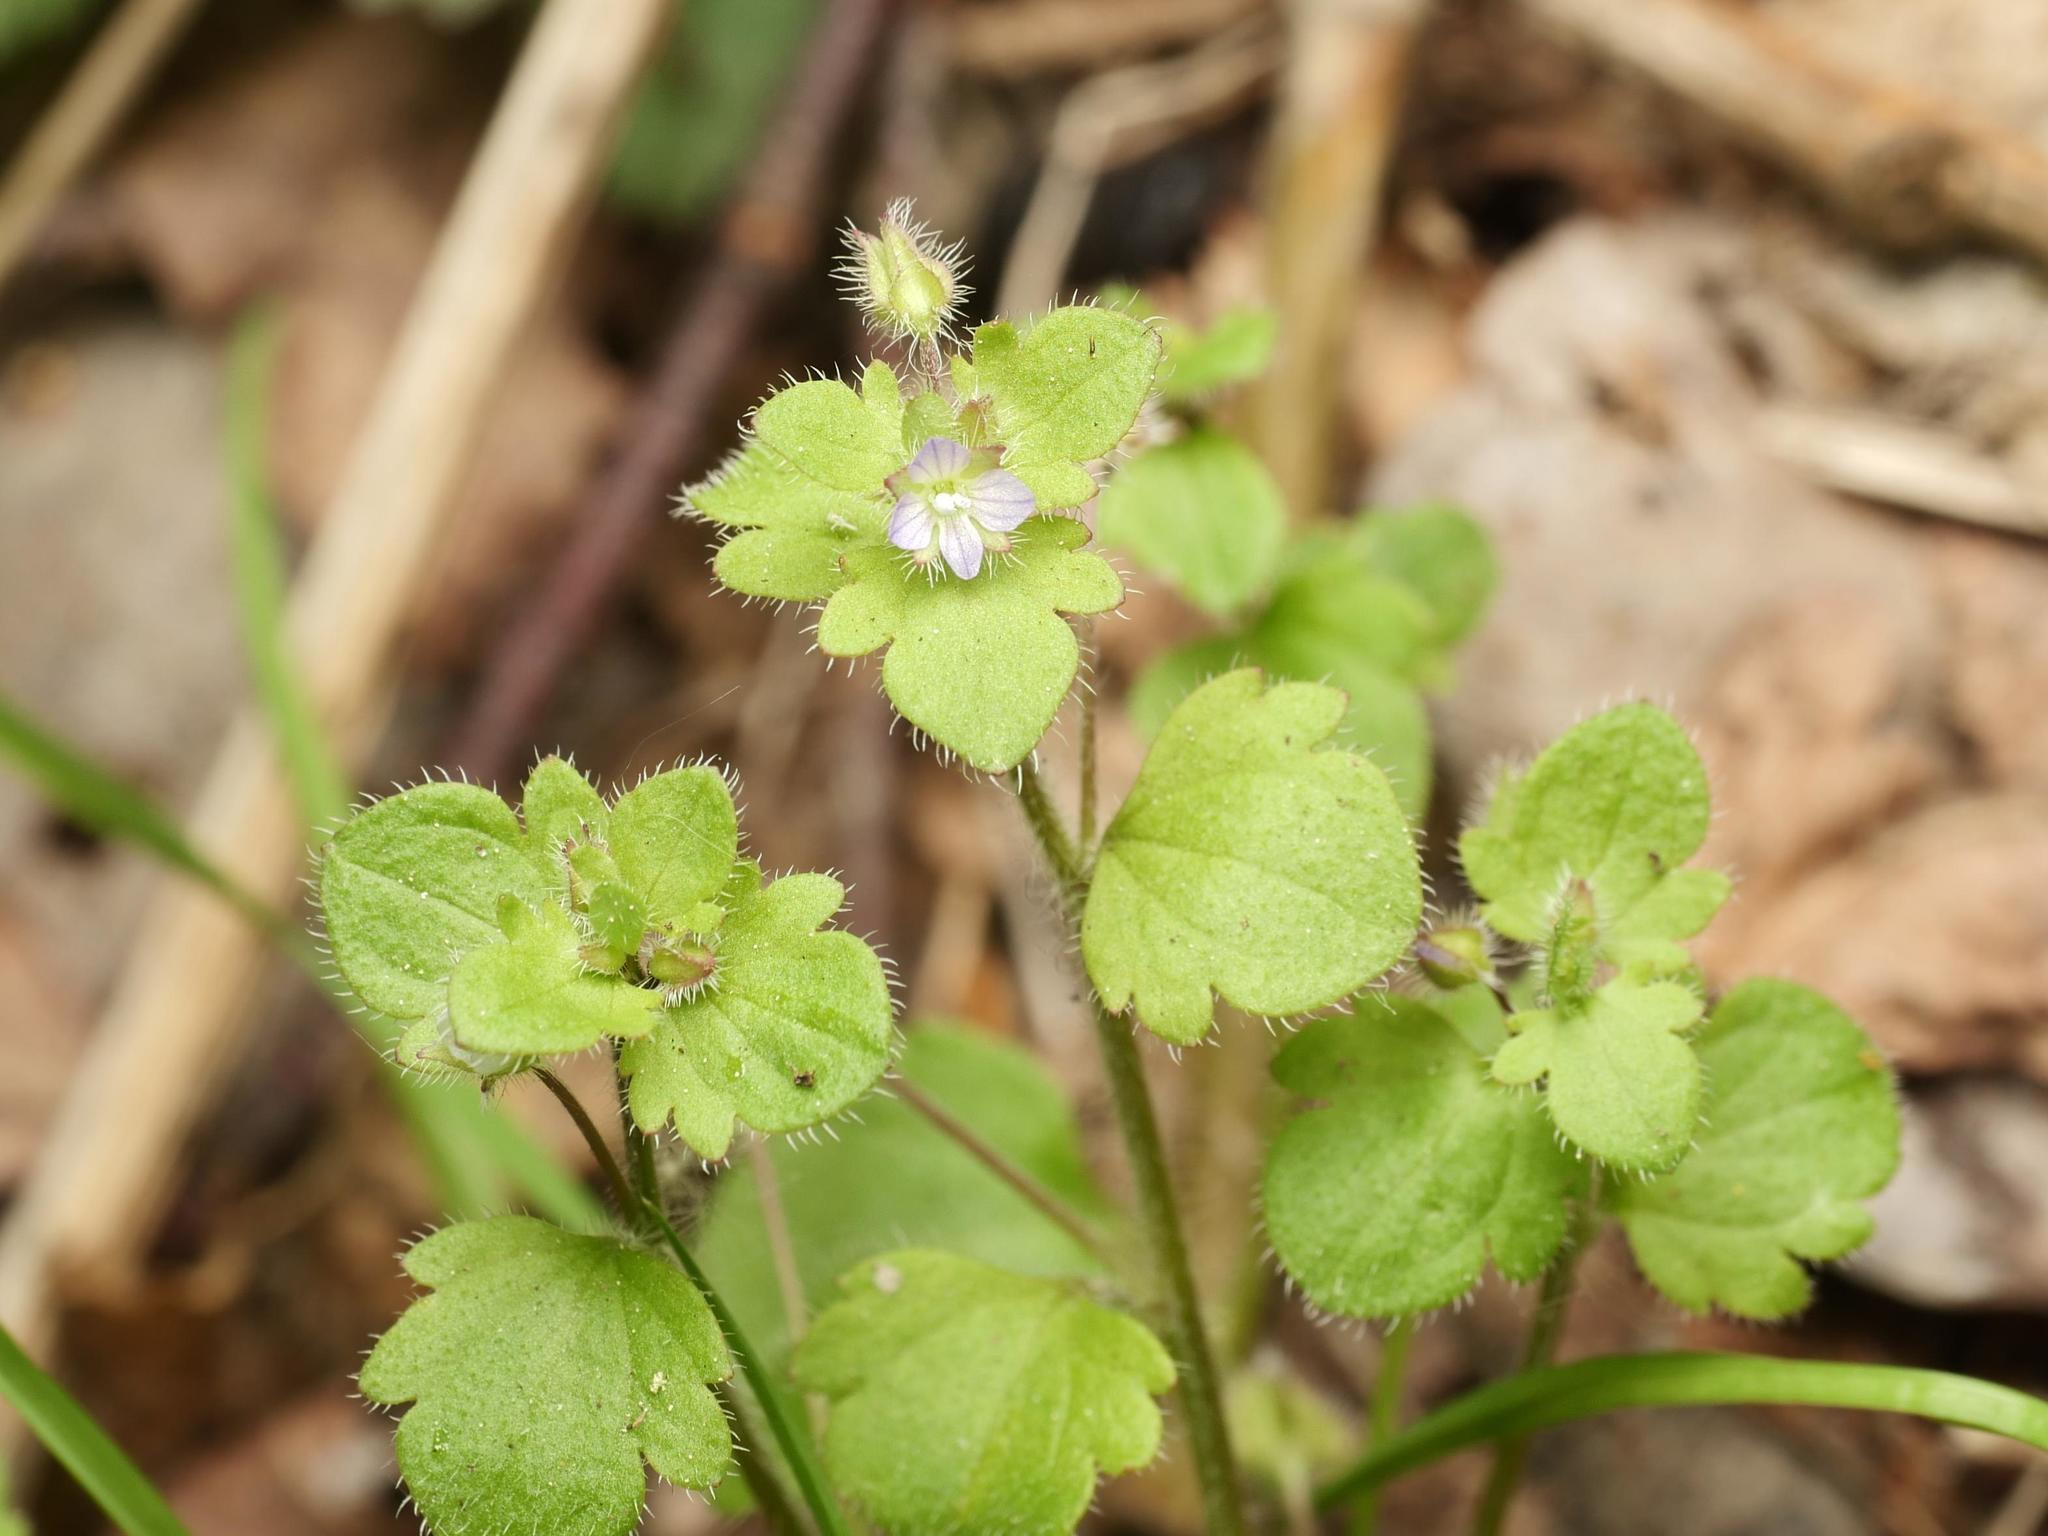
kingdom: Plantae
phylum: Tracheophyta
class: Magnoliopsida
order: Lamiales
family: Plantaginaceae
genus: Veronica
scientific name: Veronica sublobata
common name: False ivy-leaved speedwell
